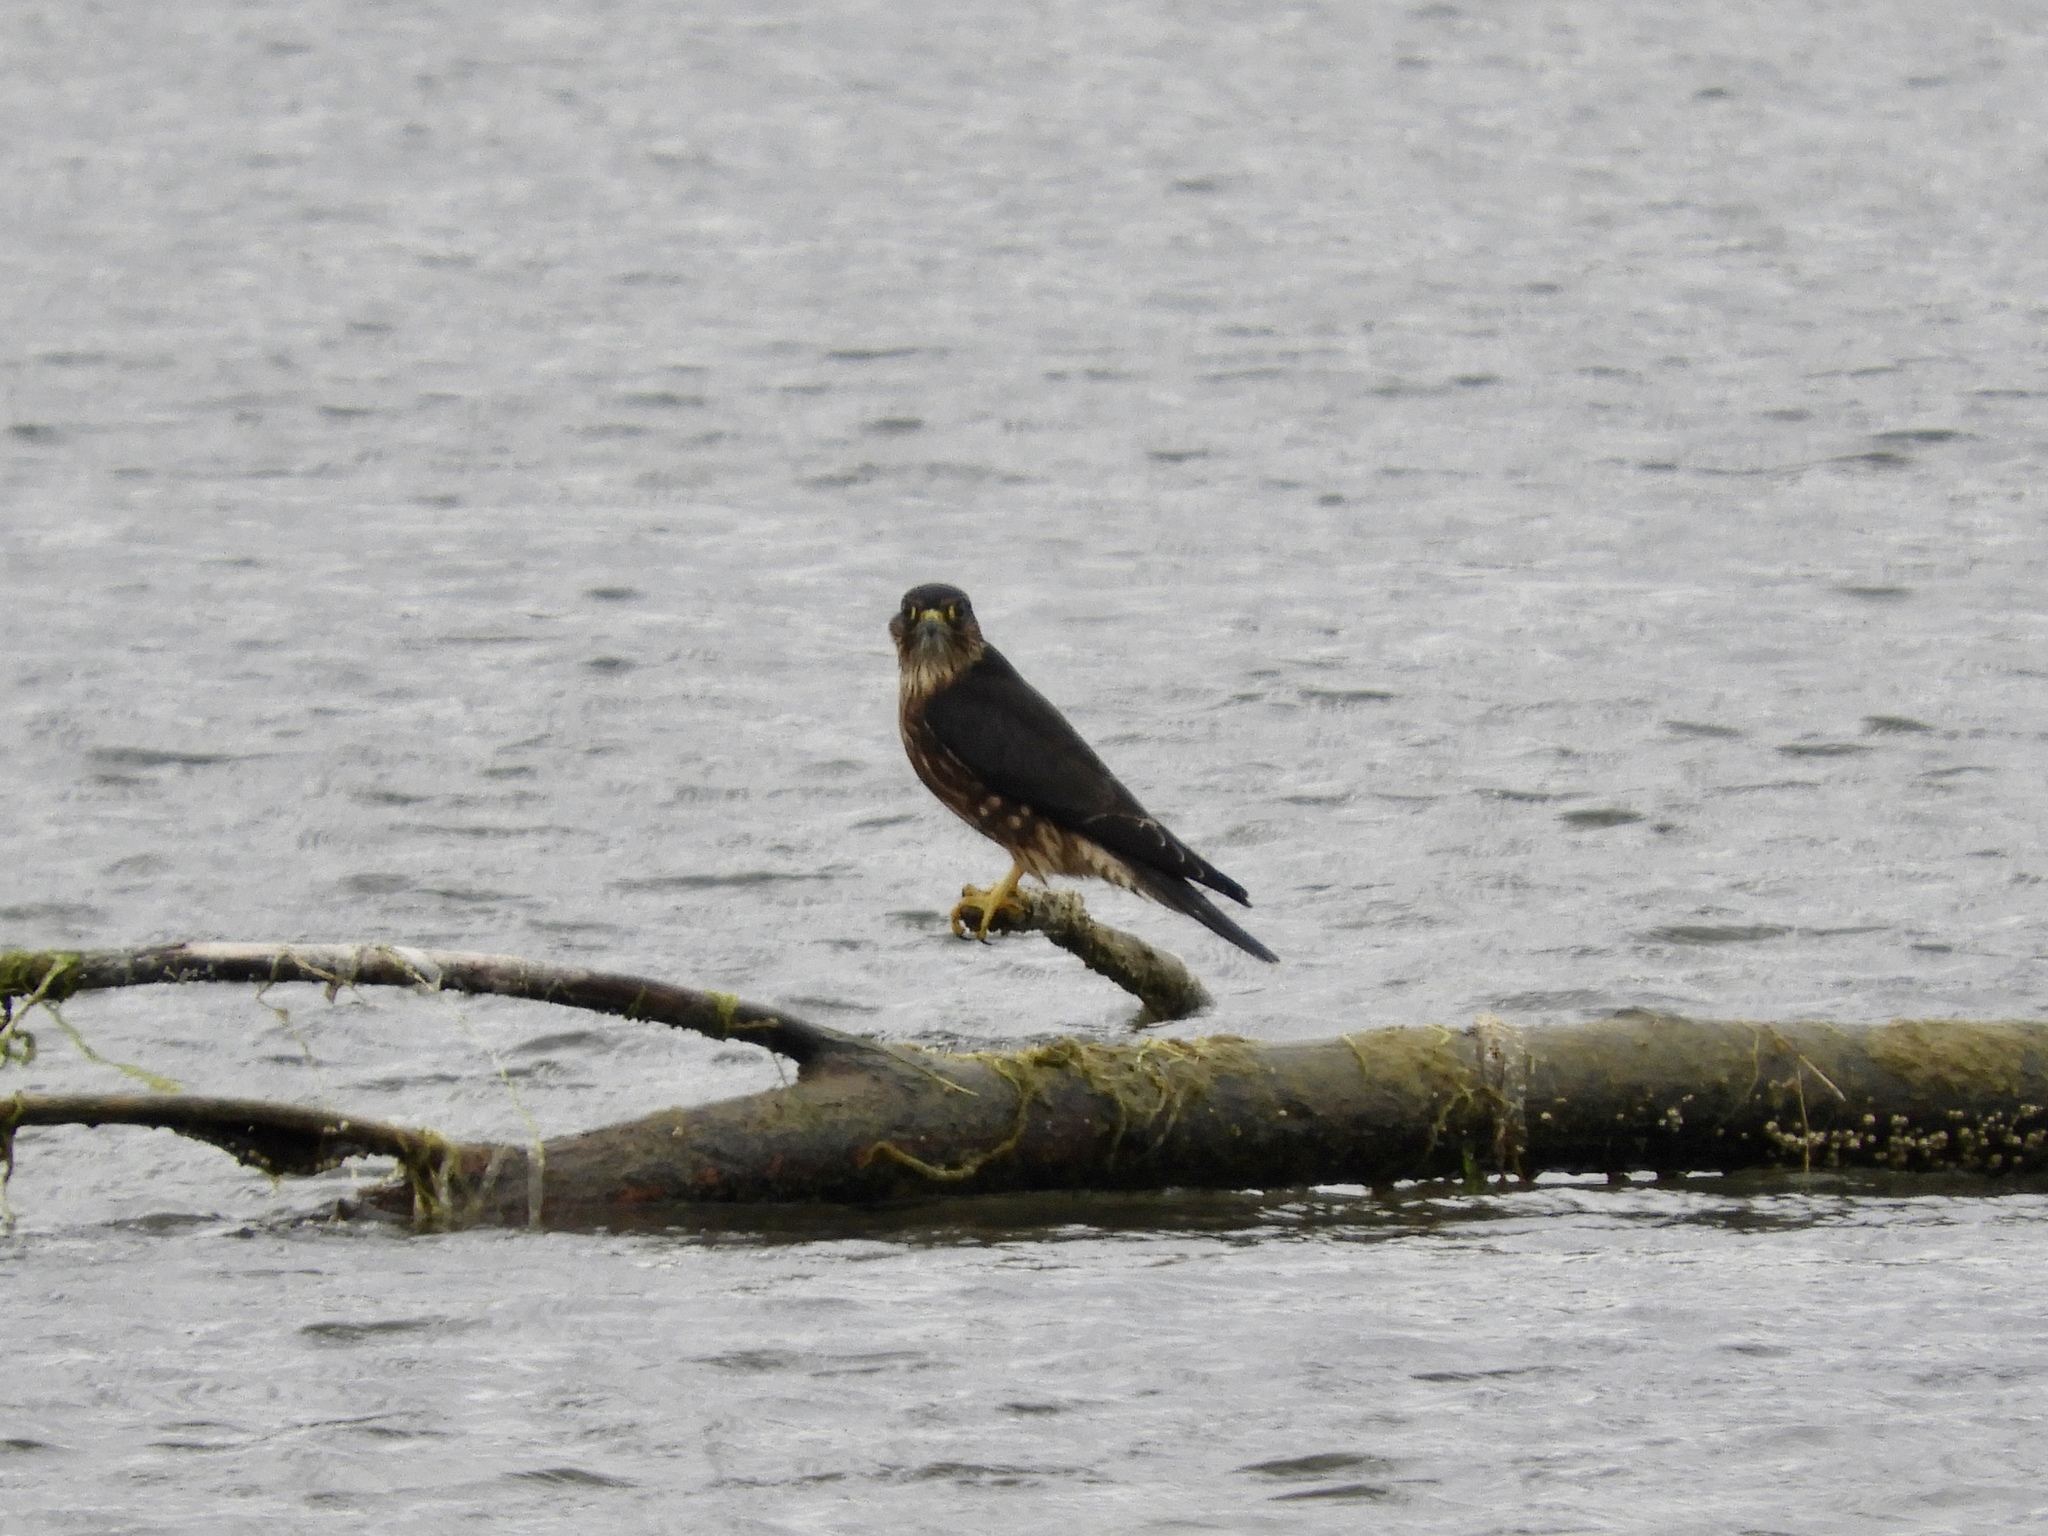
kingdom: Animalia
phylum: Chordata
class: Aves
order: Falconiformes
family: Falconidae
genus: Falco
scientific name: Falco columbarius
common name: Merlin
